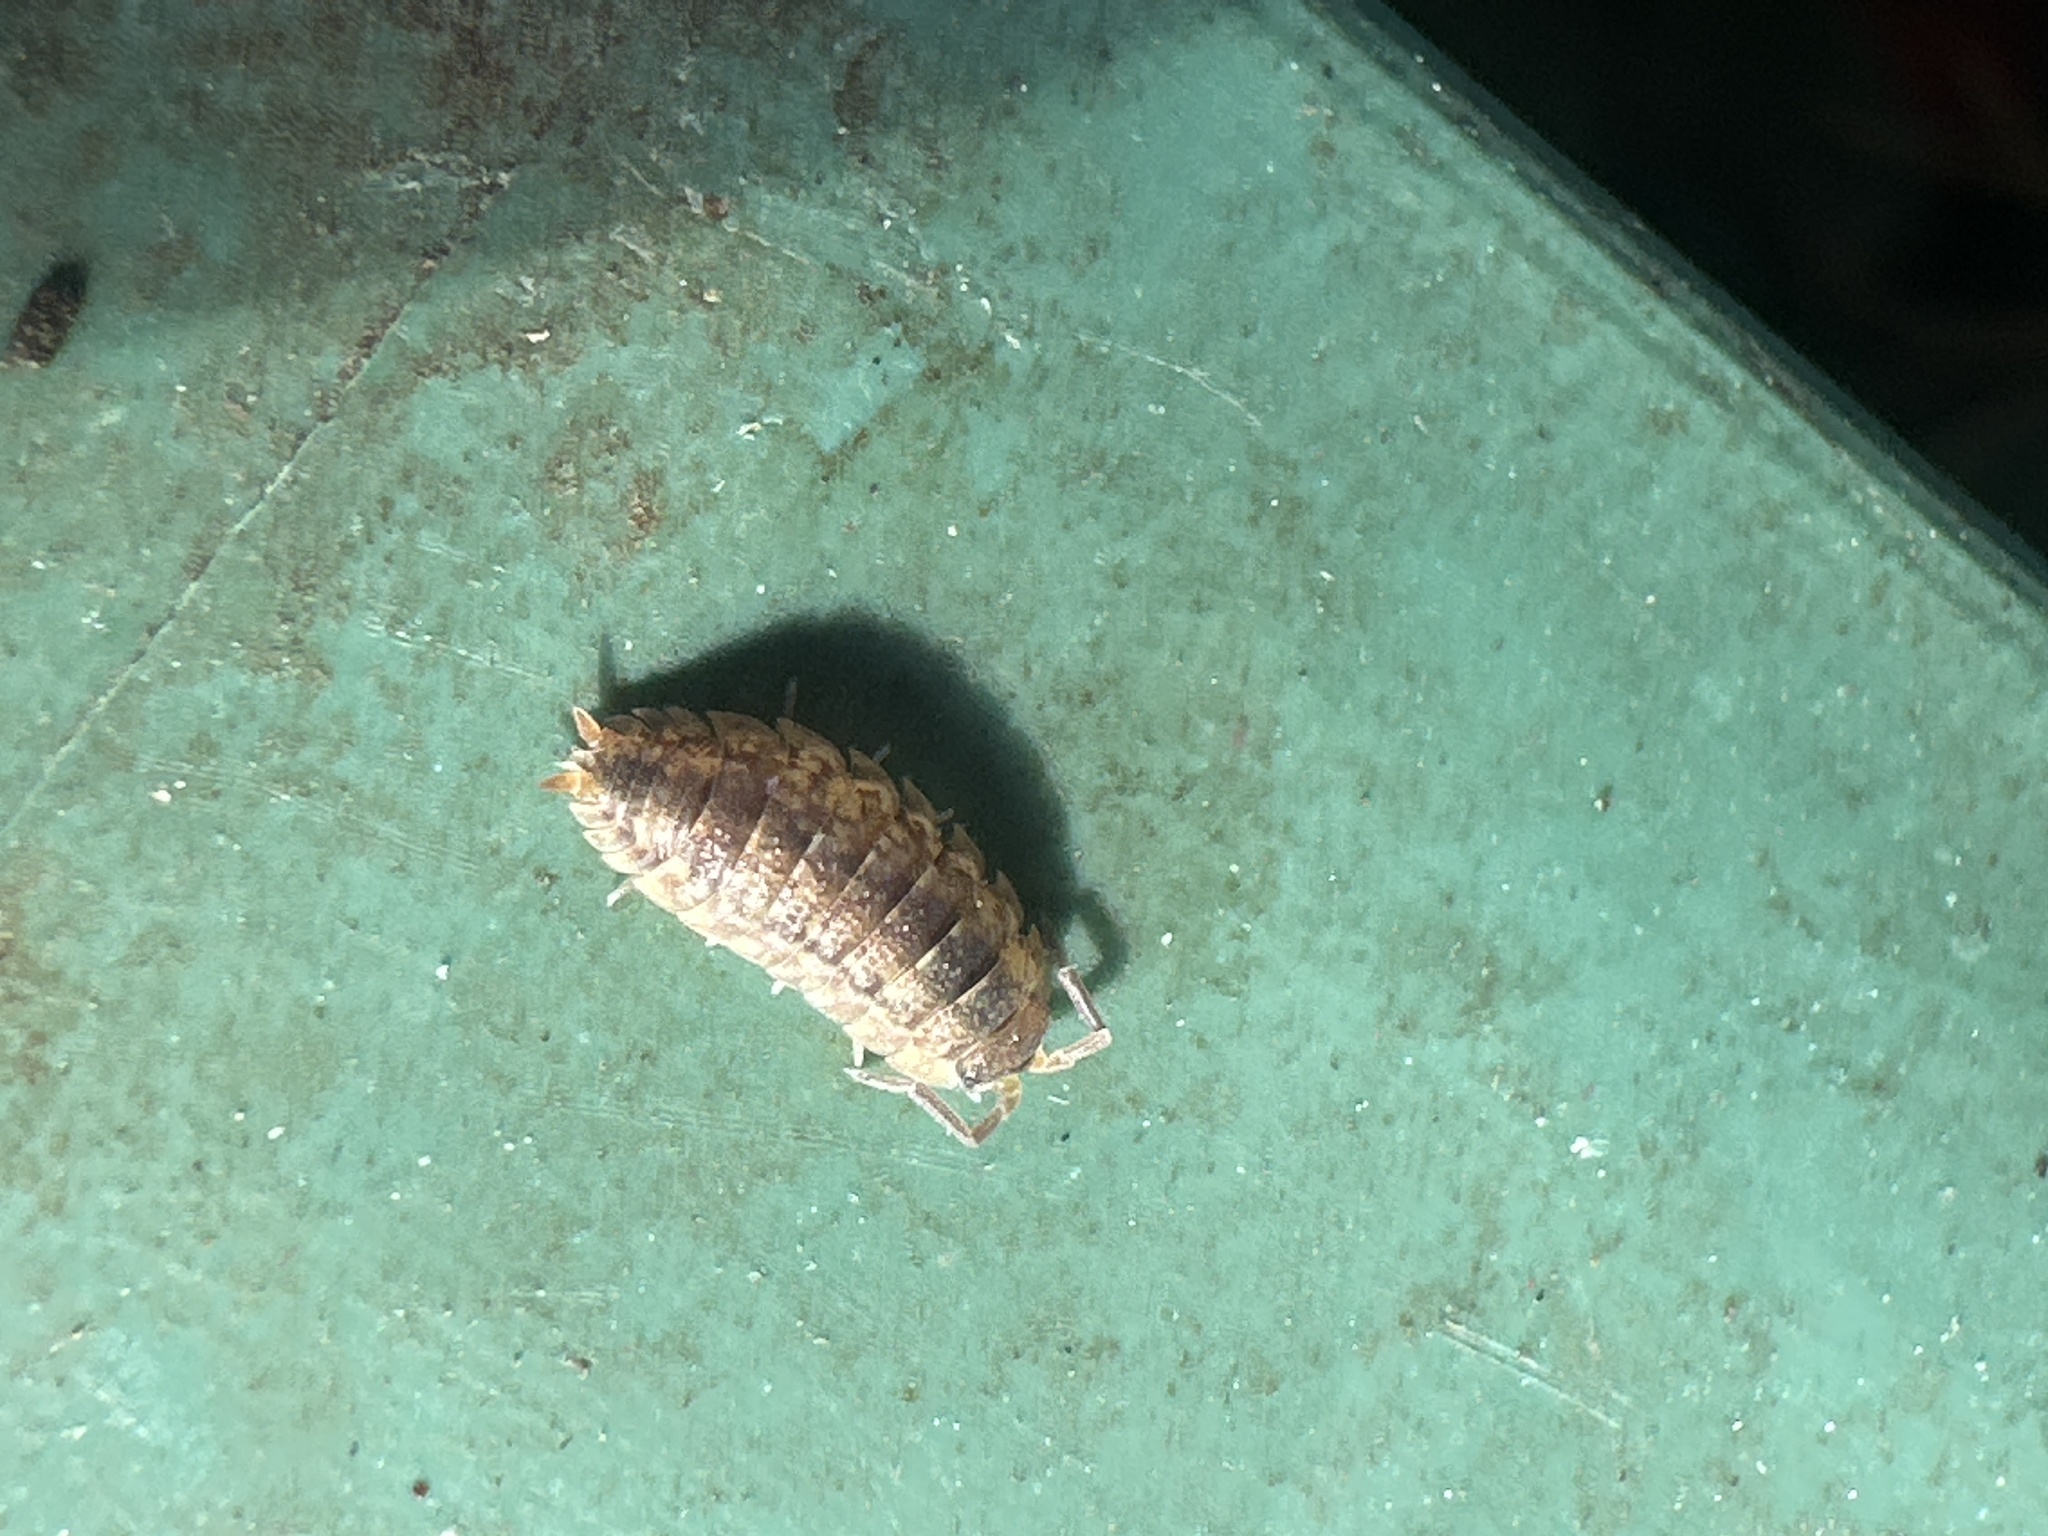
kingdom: Animalia
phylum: Arthropoda
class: Malacostraca
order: Isopoda
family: Porcellionidae
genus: Porcellio
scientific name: Porcellio scaber
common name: Common rough woodlouse
